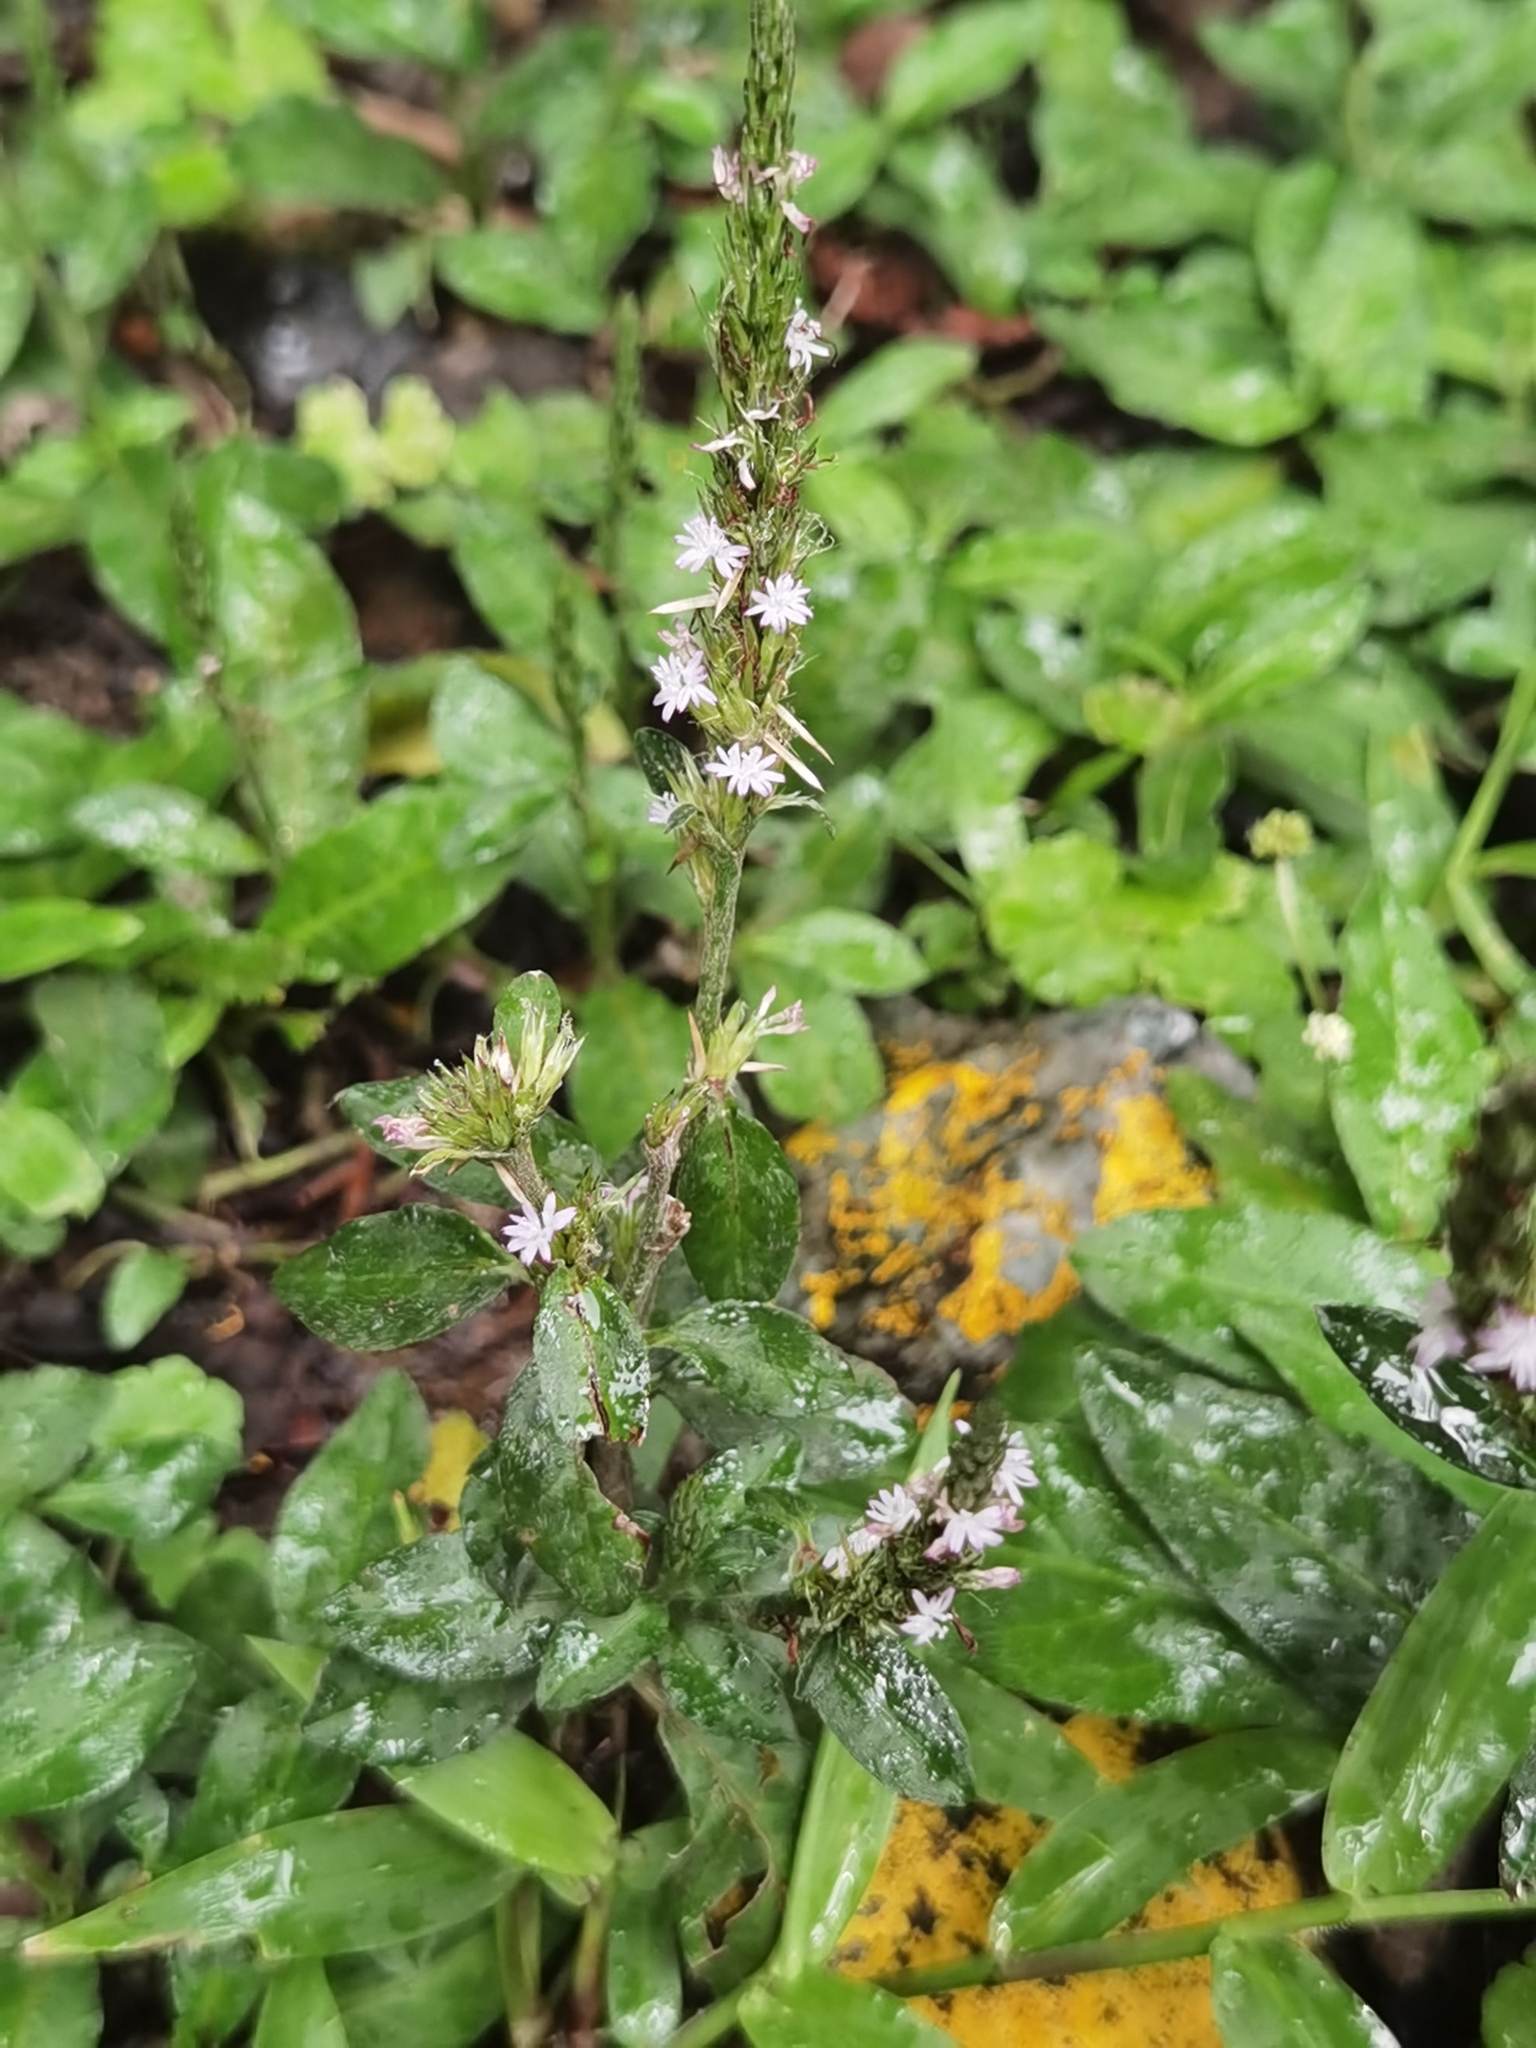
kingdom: Plantae
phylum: Tracheophyta
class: Magnoliopsida
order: Asterales
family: Asteraceae
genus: Pseudelephantopus
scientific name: Pseudelephantopus spicatus
